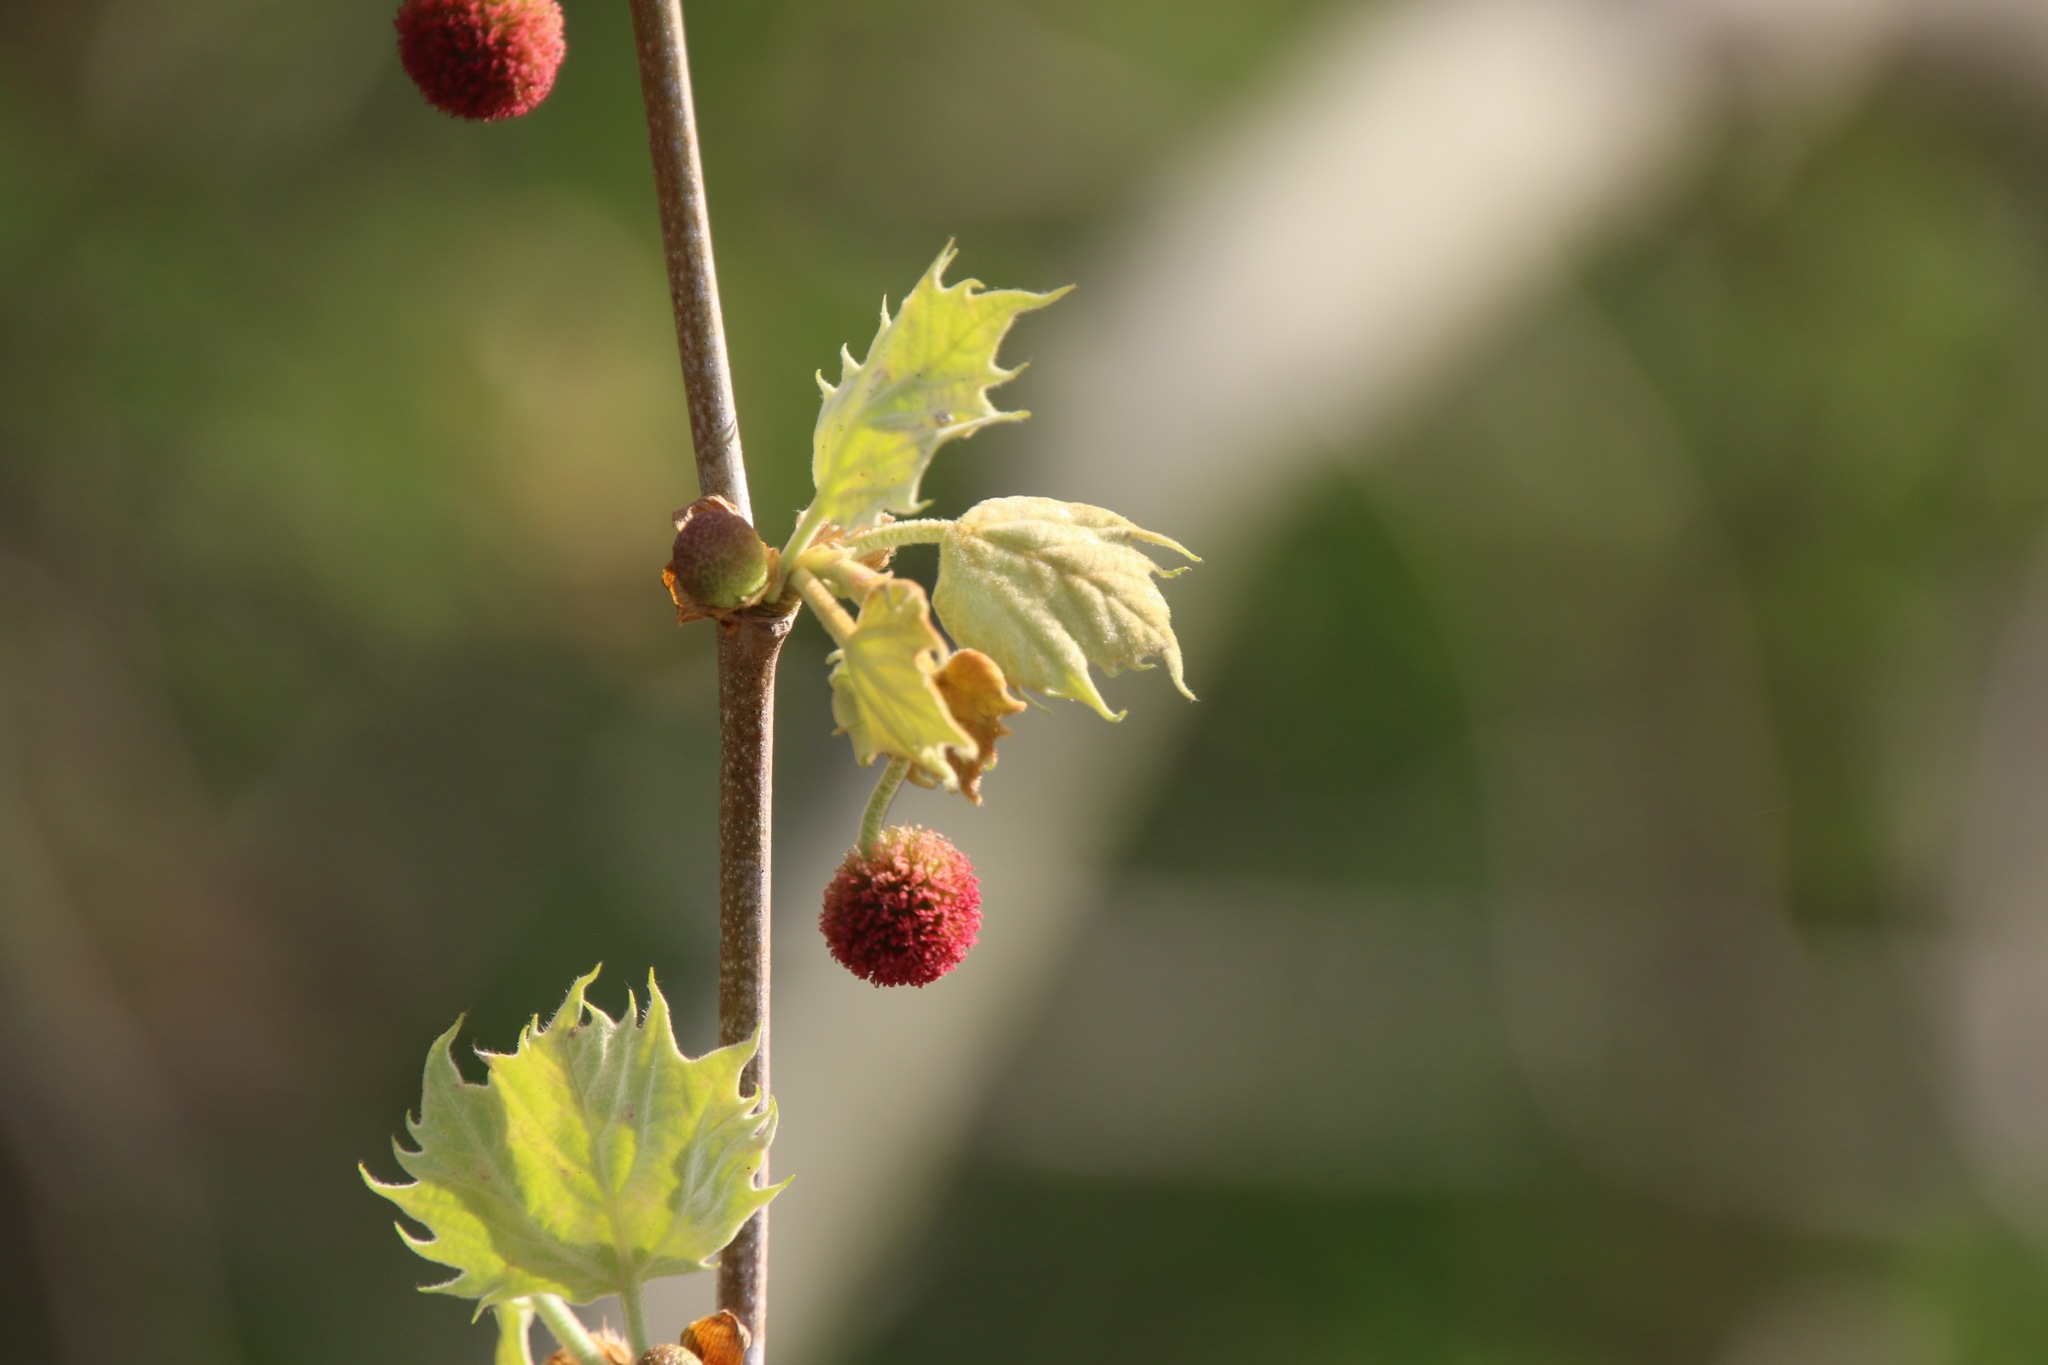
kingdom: Plantae
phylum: Tracheophyta
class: Magnoliopsida
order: Proteales
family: Platanaceae
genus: Platanus
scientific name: Platanus occidentalis
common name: American sycamore
